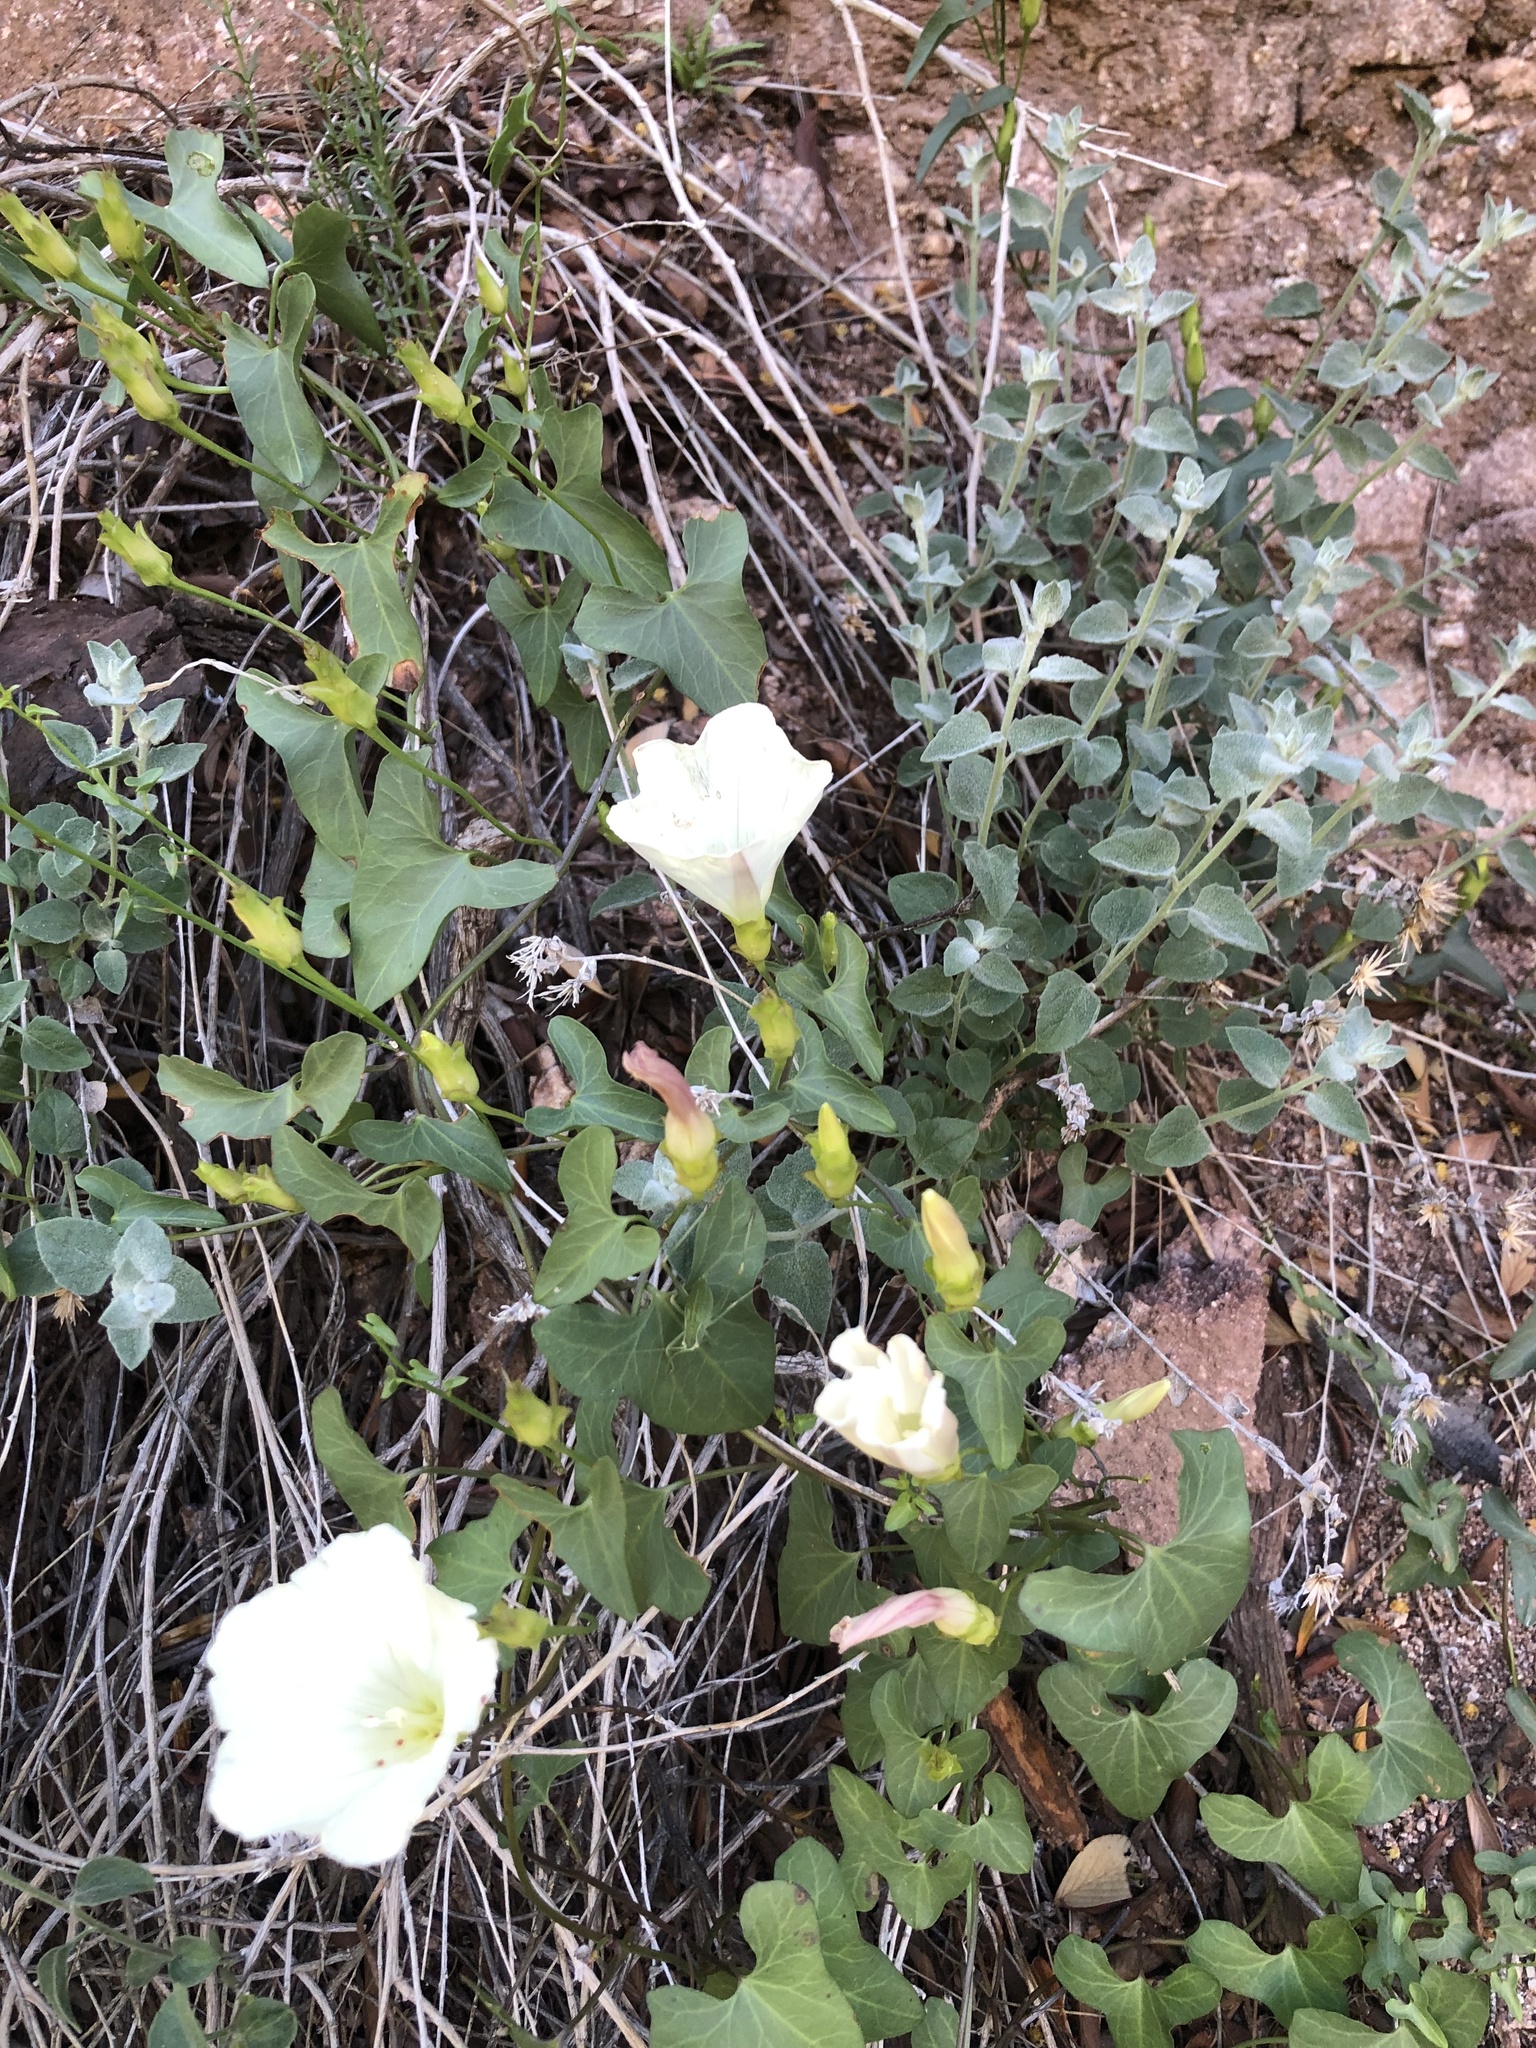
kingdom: Plantae
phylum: Tracheophyta
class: Magnoliopsida
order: Solanales
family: Convolvulaceae
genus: Calystegia
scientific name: Calystegia macrostegia
